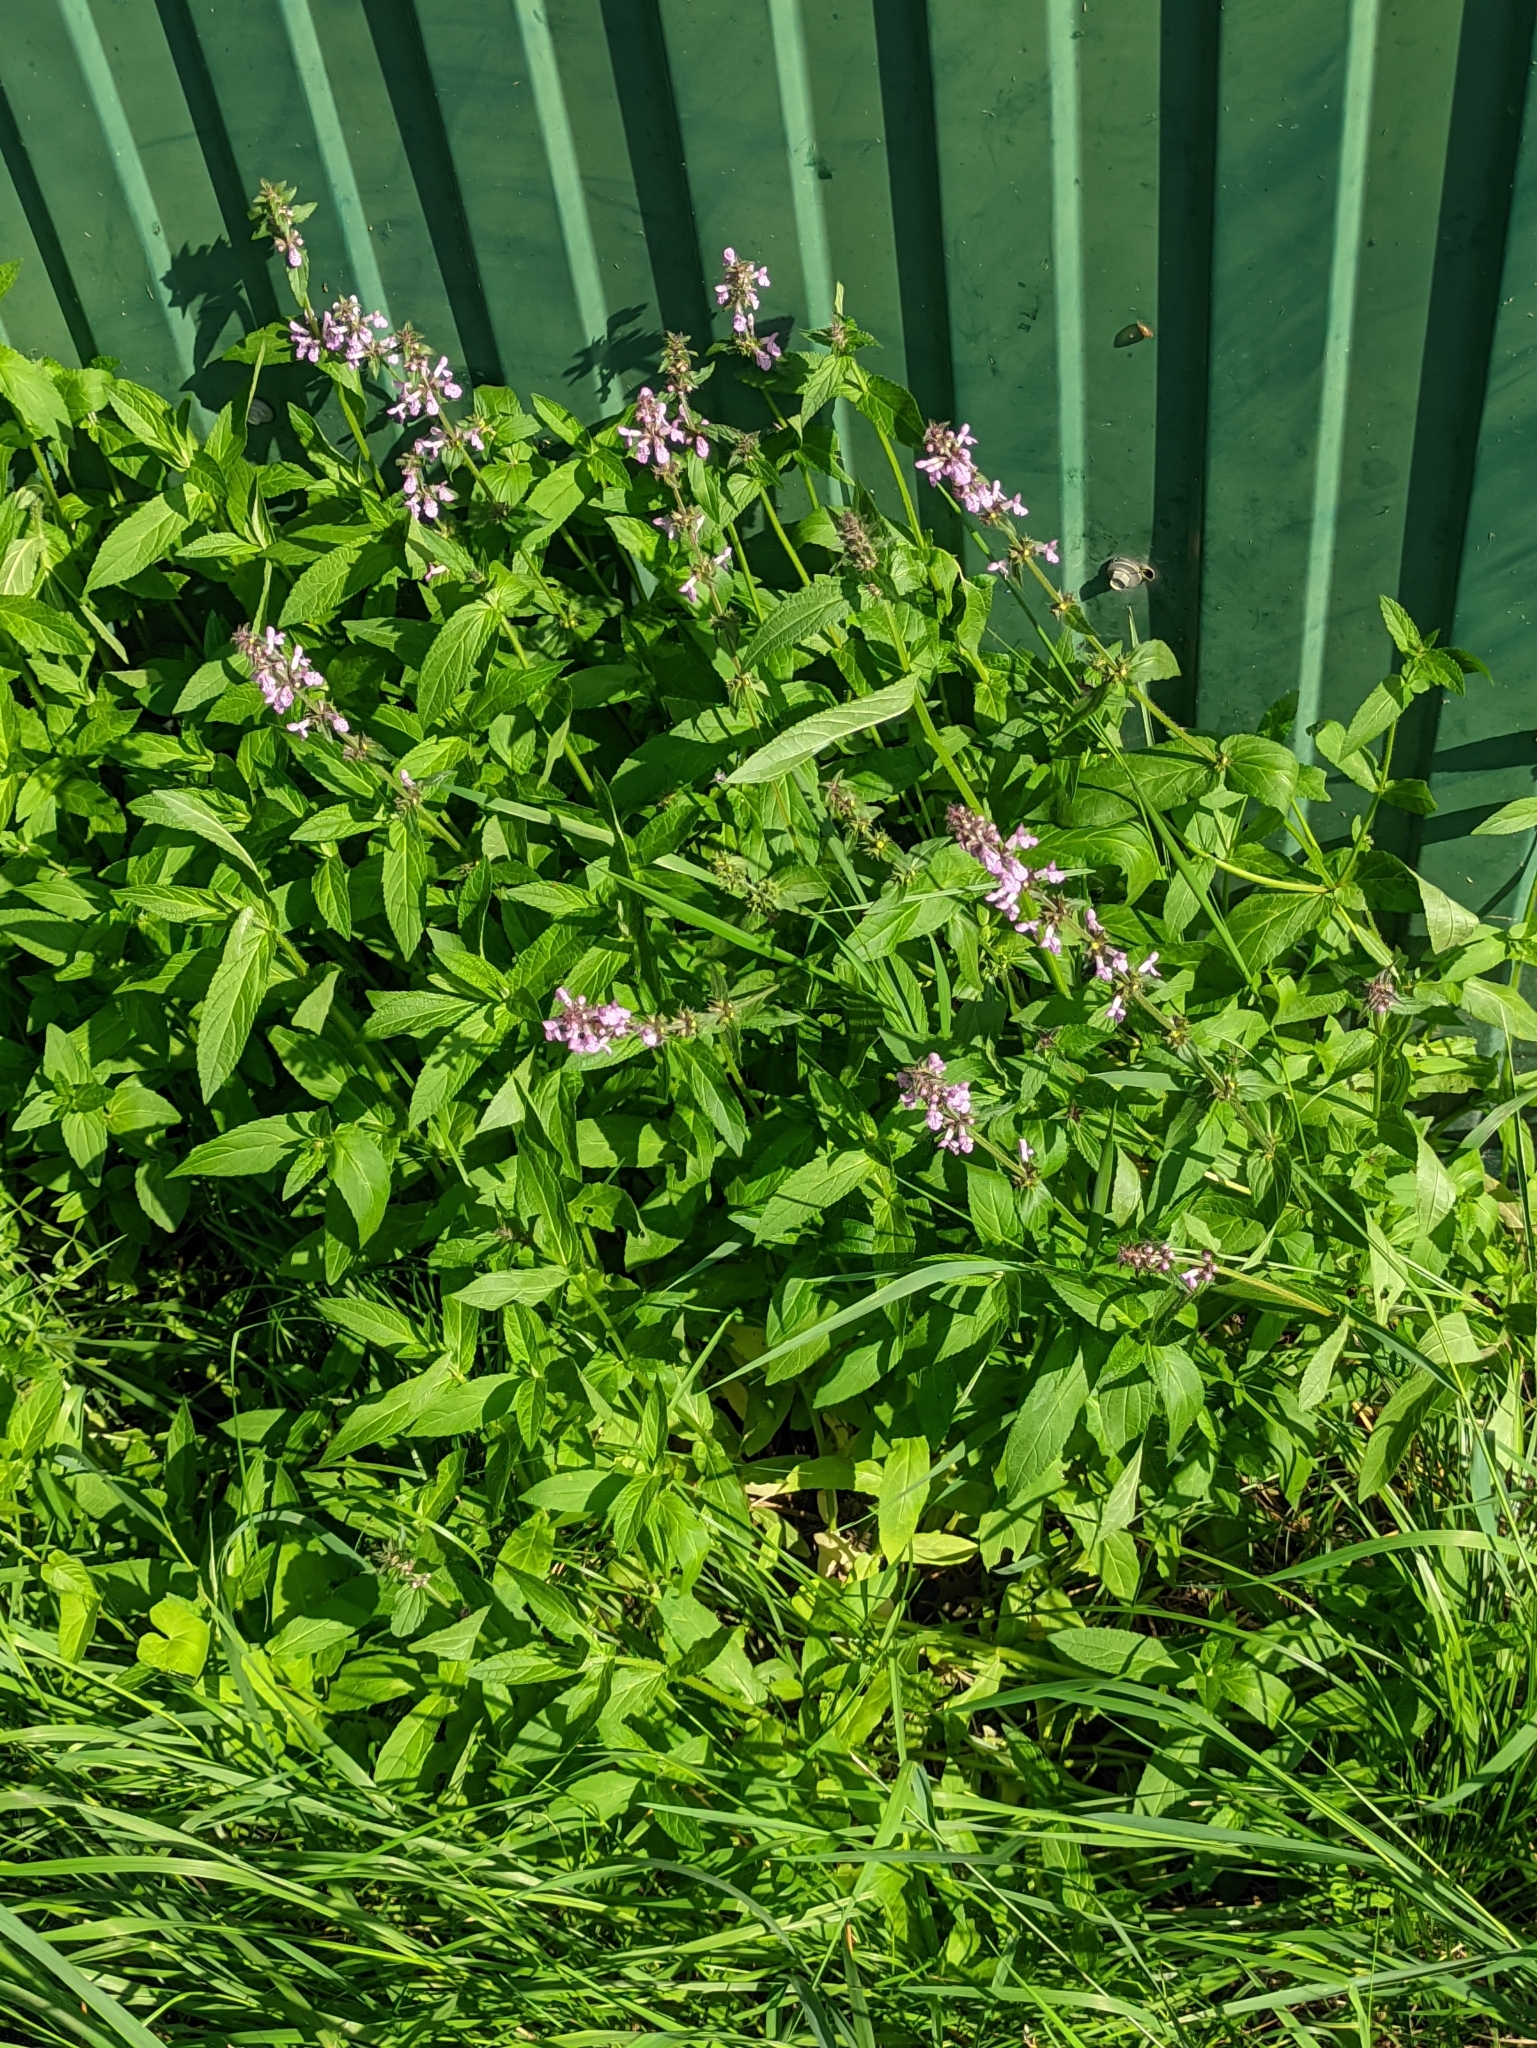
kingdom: Plantae
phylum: Tracheophyta
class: Magnoliopsida
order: Lamiales
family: Lamiaceae
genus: Stachys
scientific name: Stachys palustris
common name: Marsh woundwort
